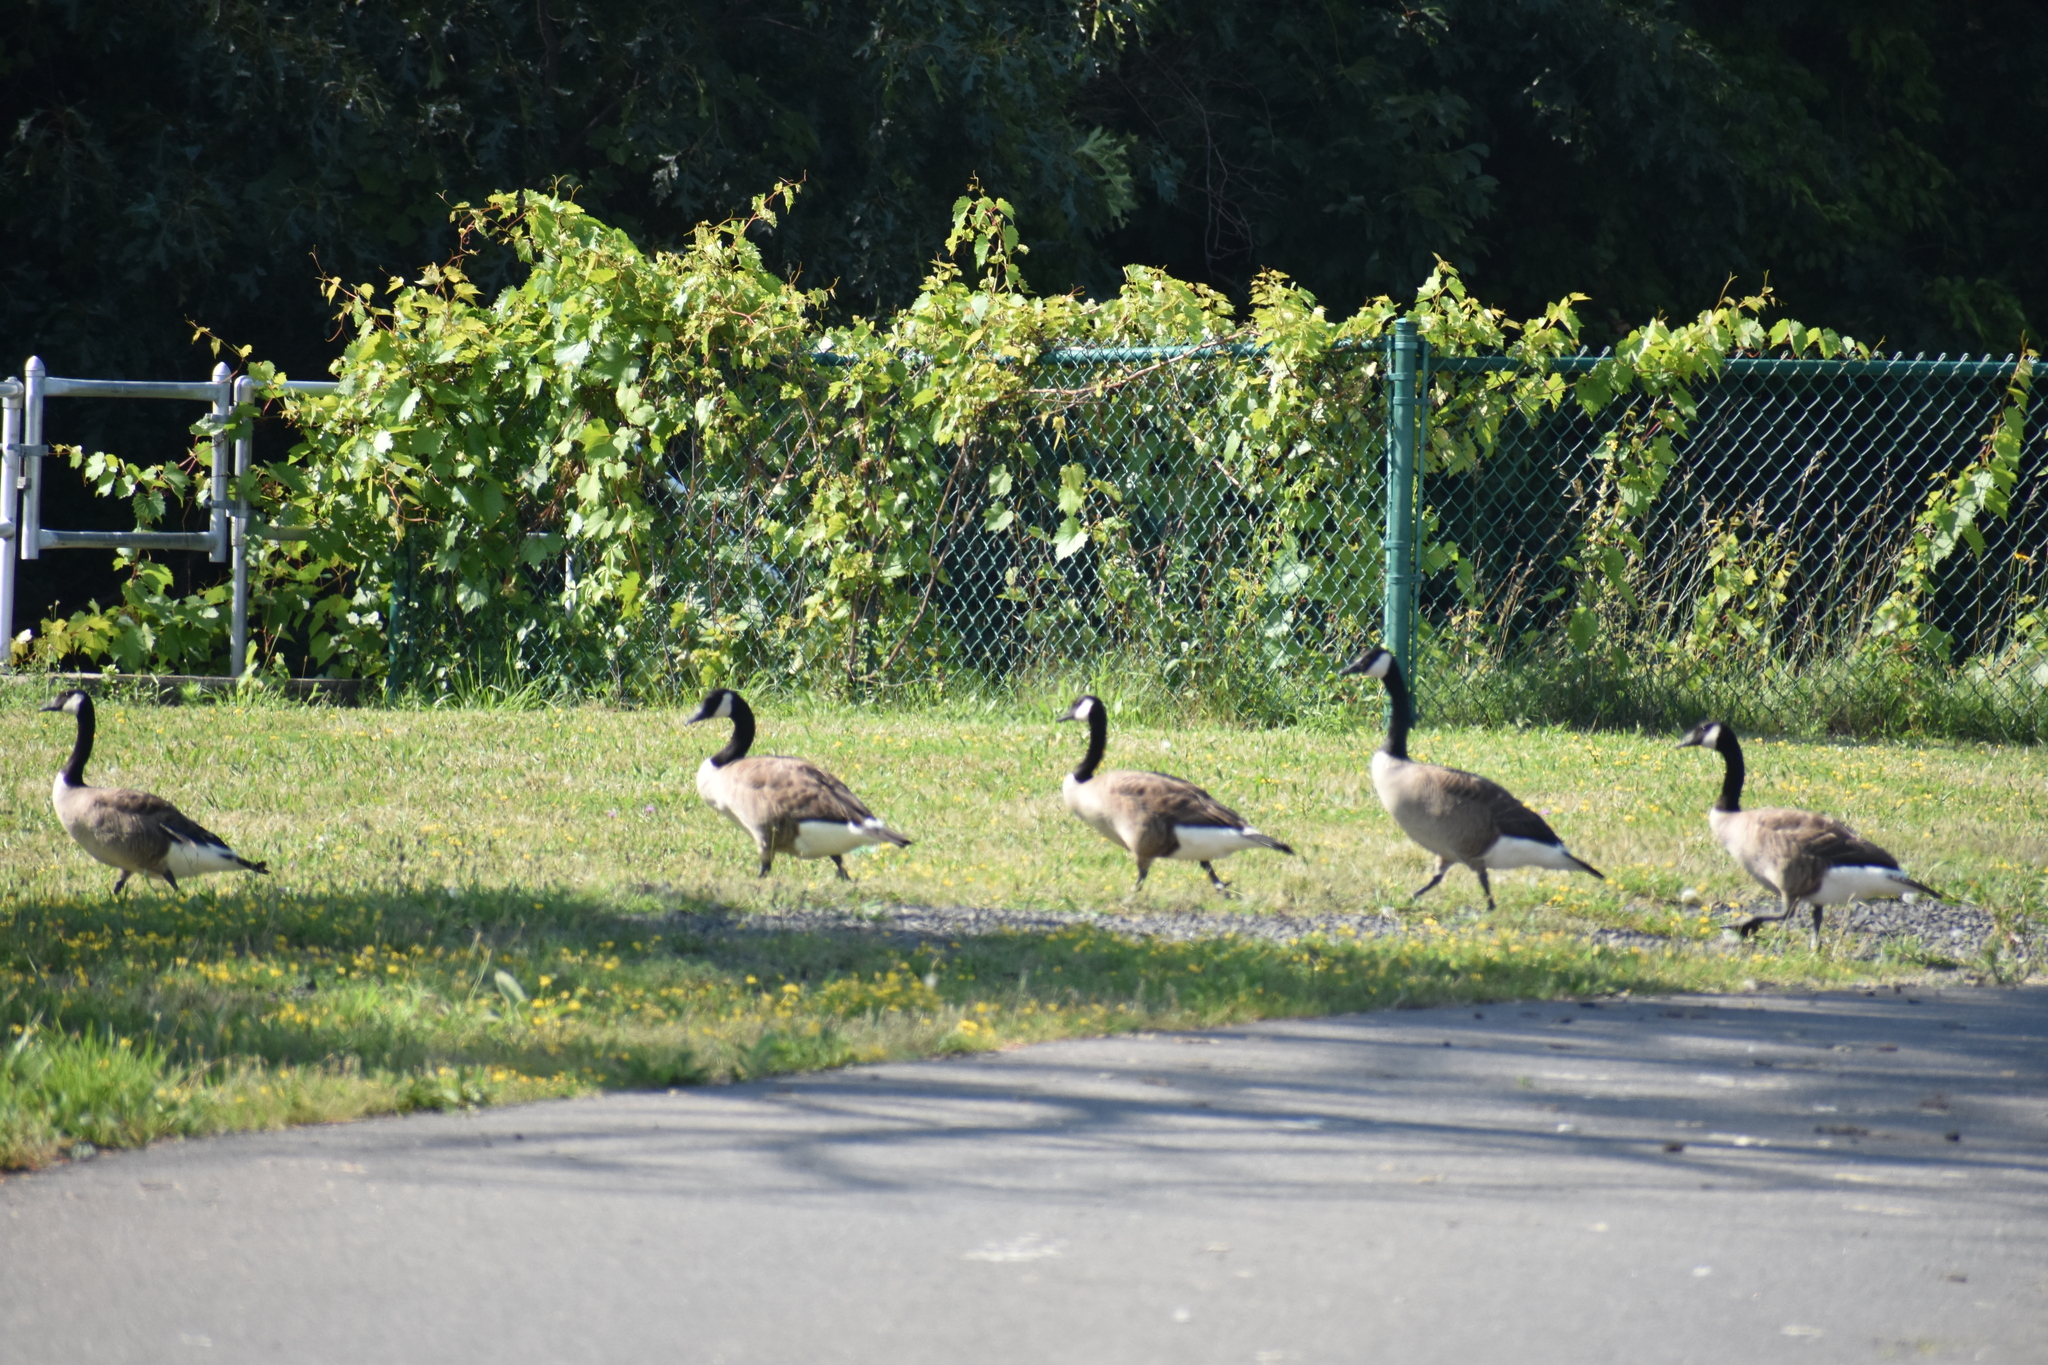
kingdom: Animalia
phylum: Chordata
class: Aves
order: Anseriformes
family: Anatidae
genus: Branta
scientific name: Branta canadensis
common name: Canada goose
